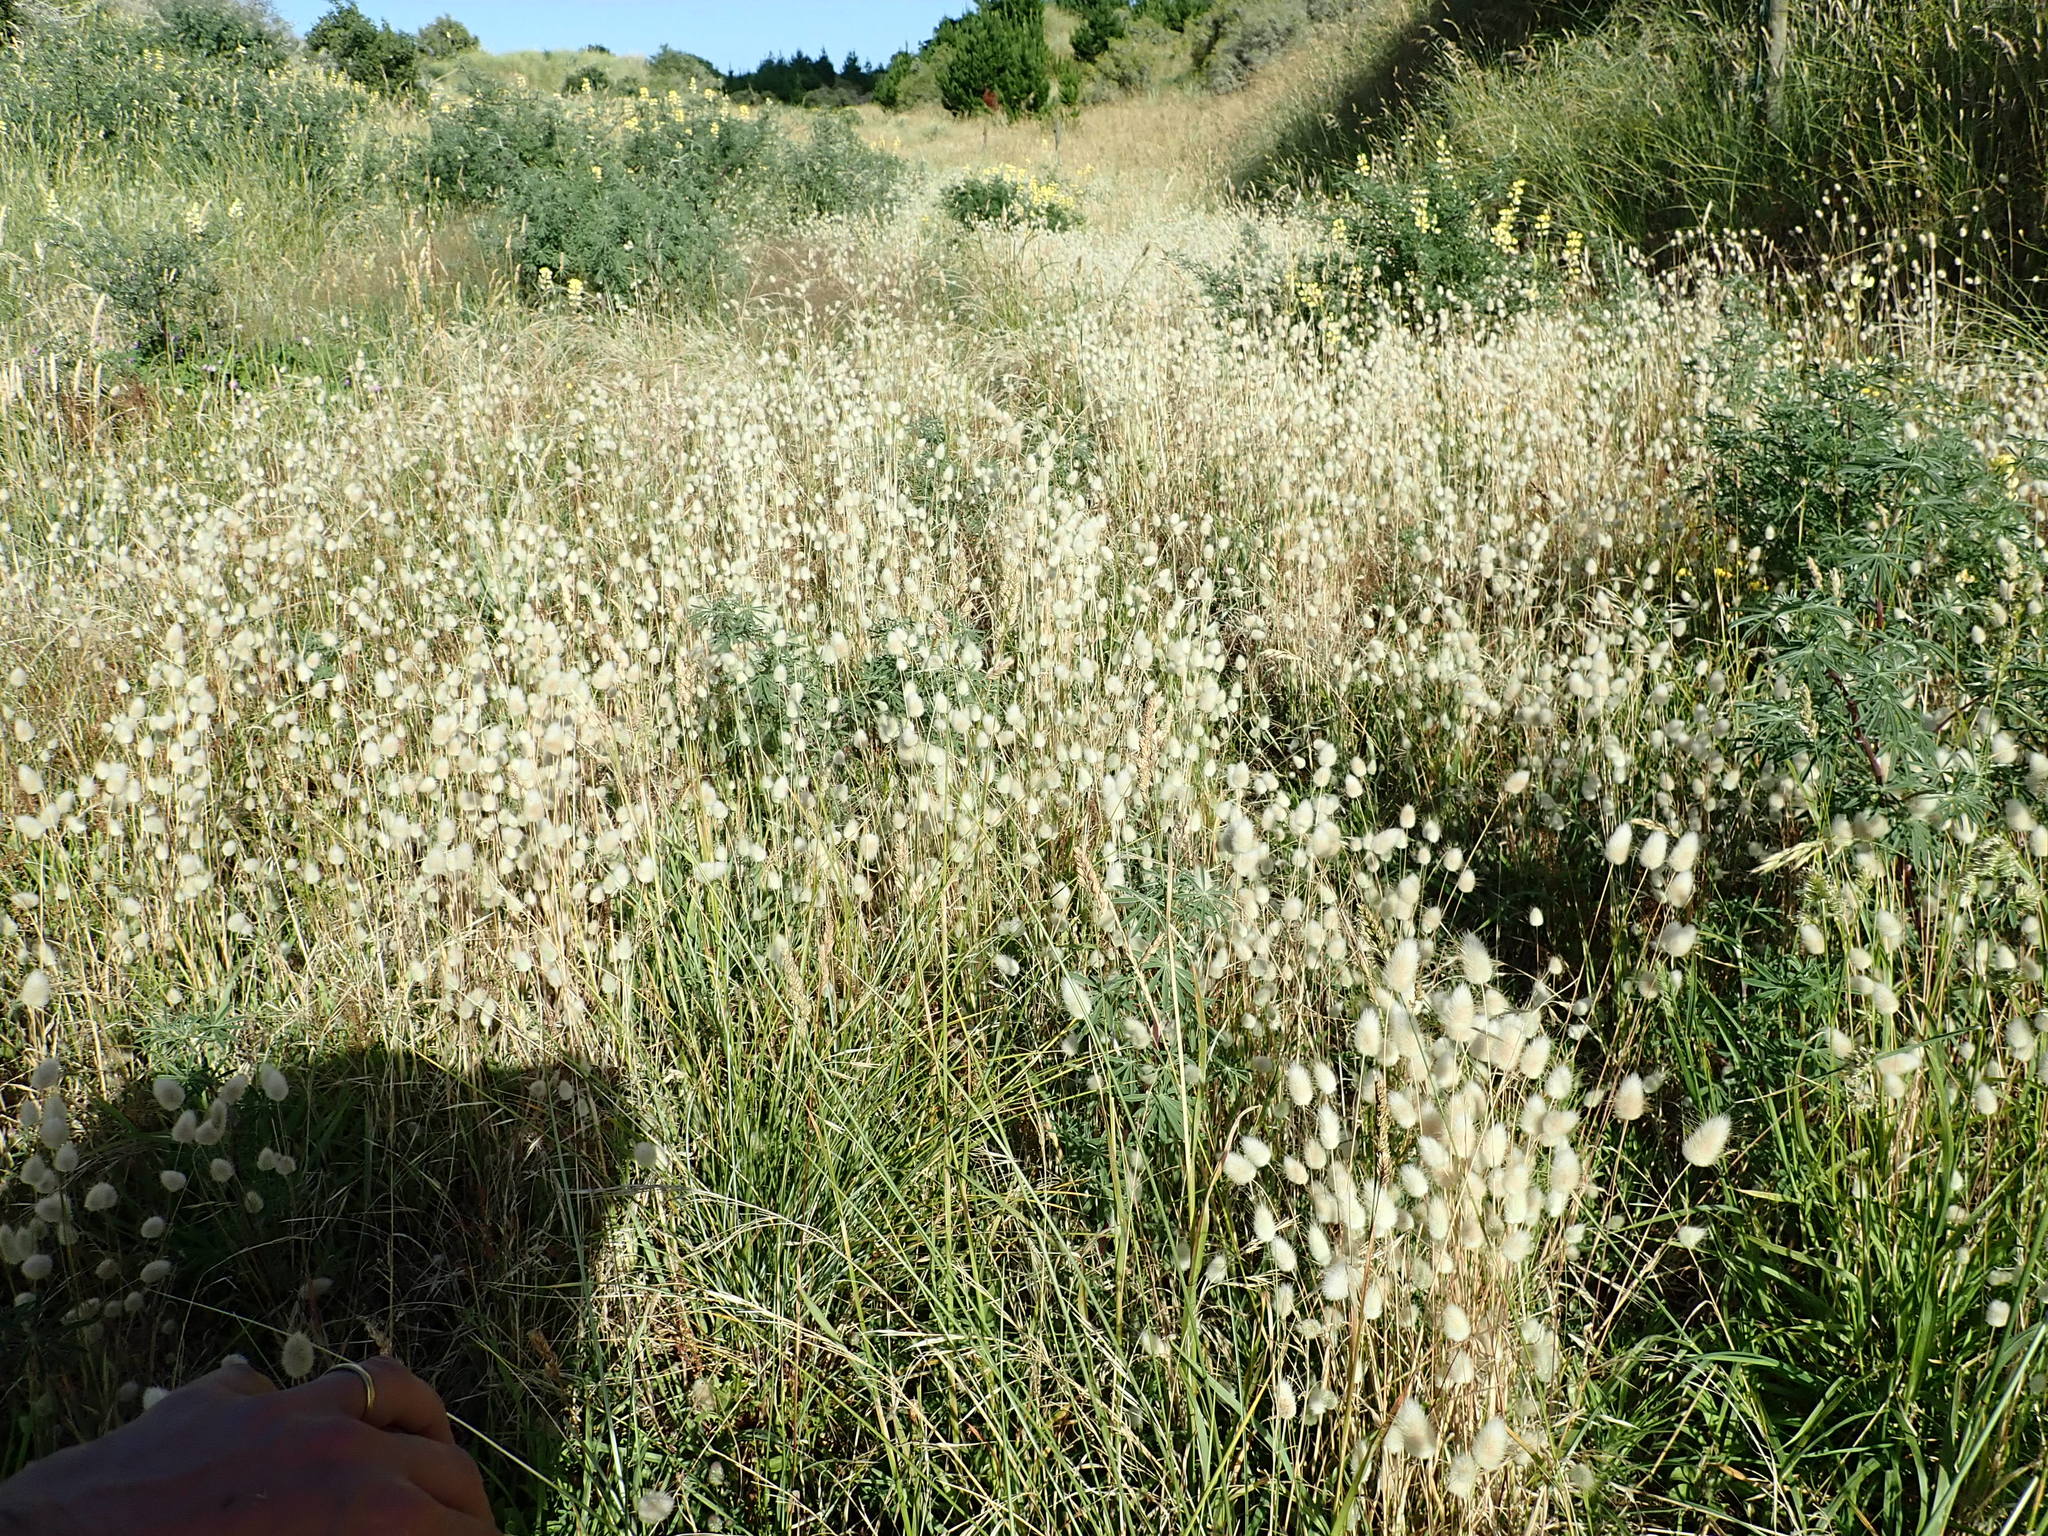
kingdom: Plantae
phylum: Tracheophyta
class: Liliopsida
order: Poales
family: Poaceae
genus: Lagurus
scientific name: Lagurus ovatus
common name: Hare's-tail
